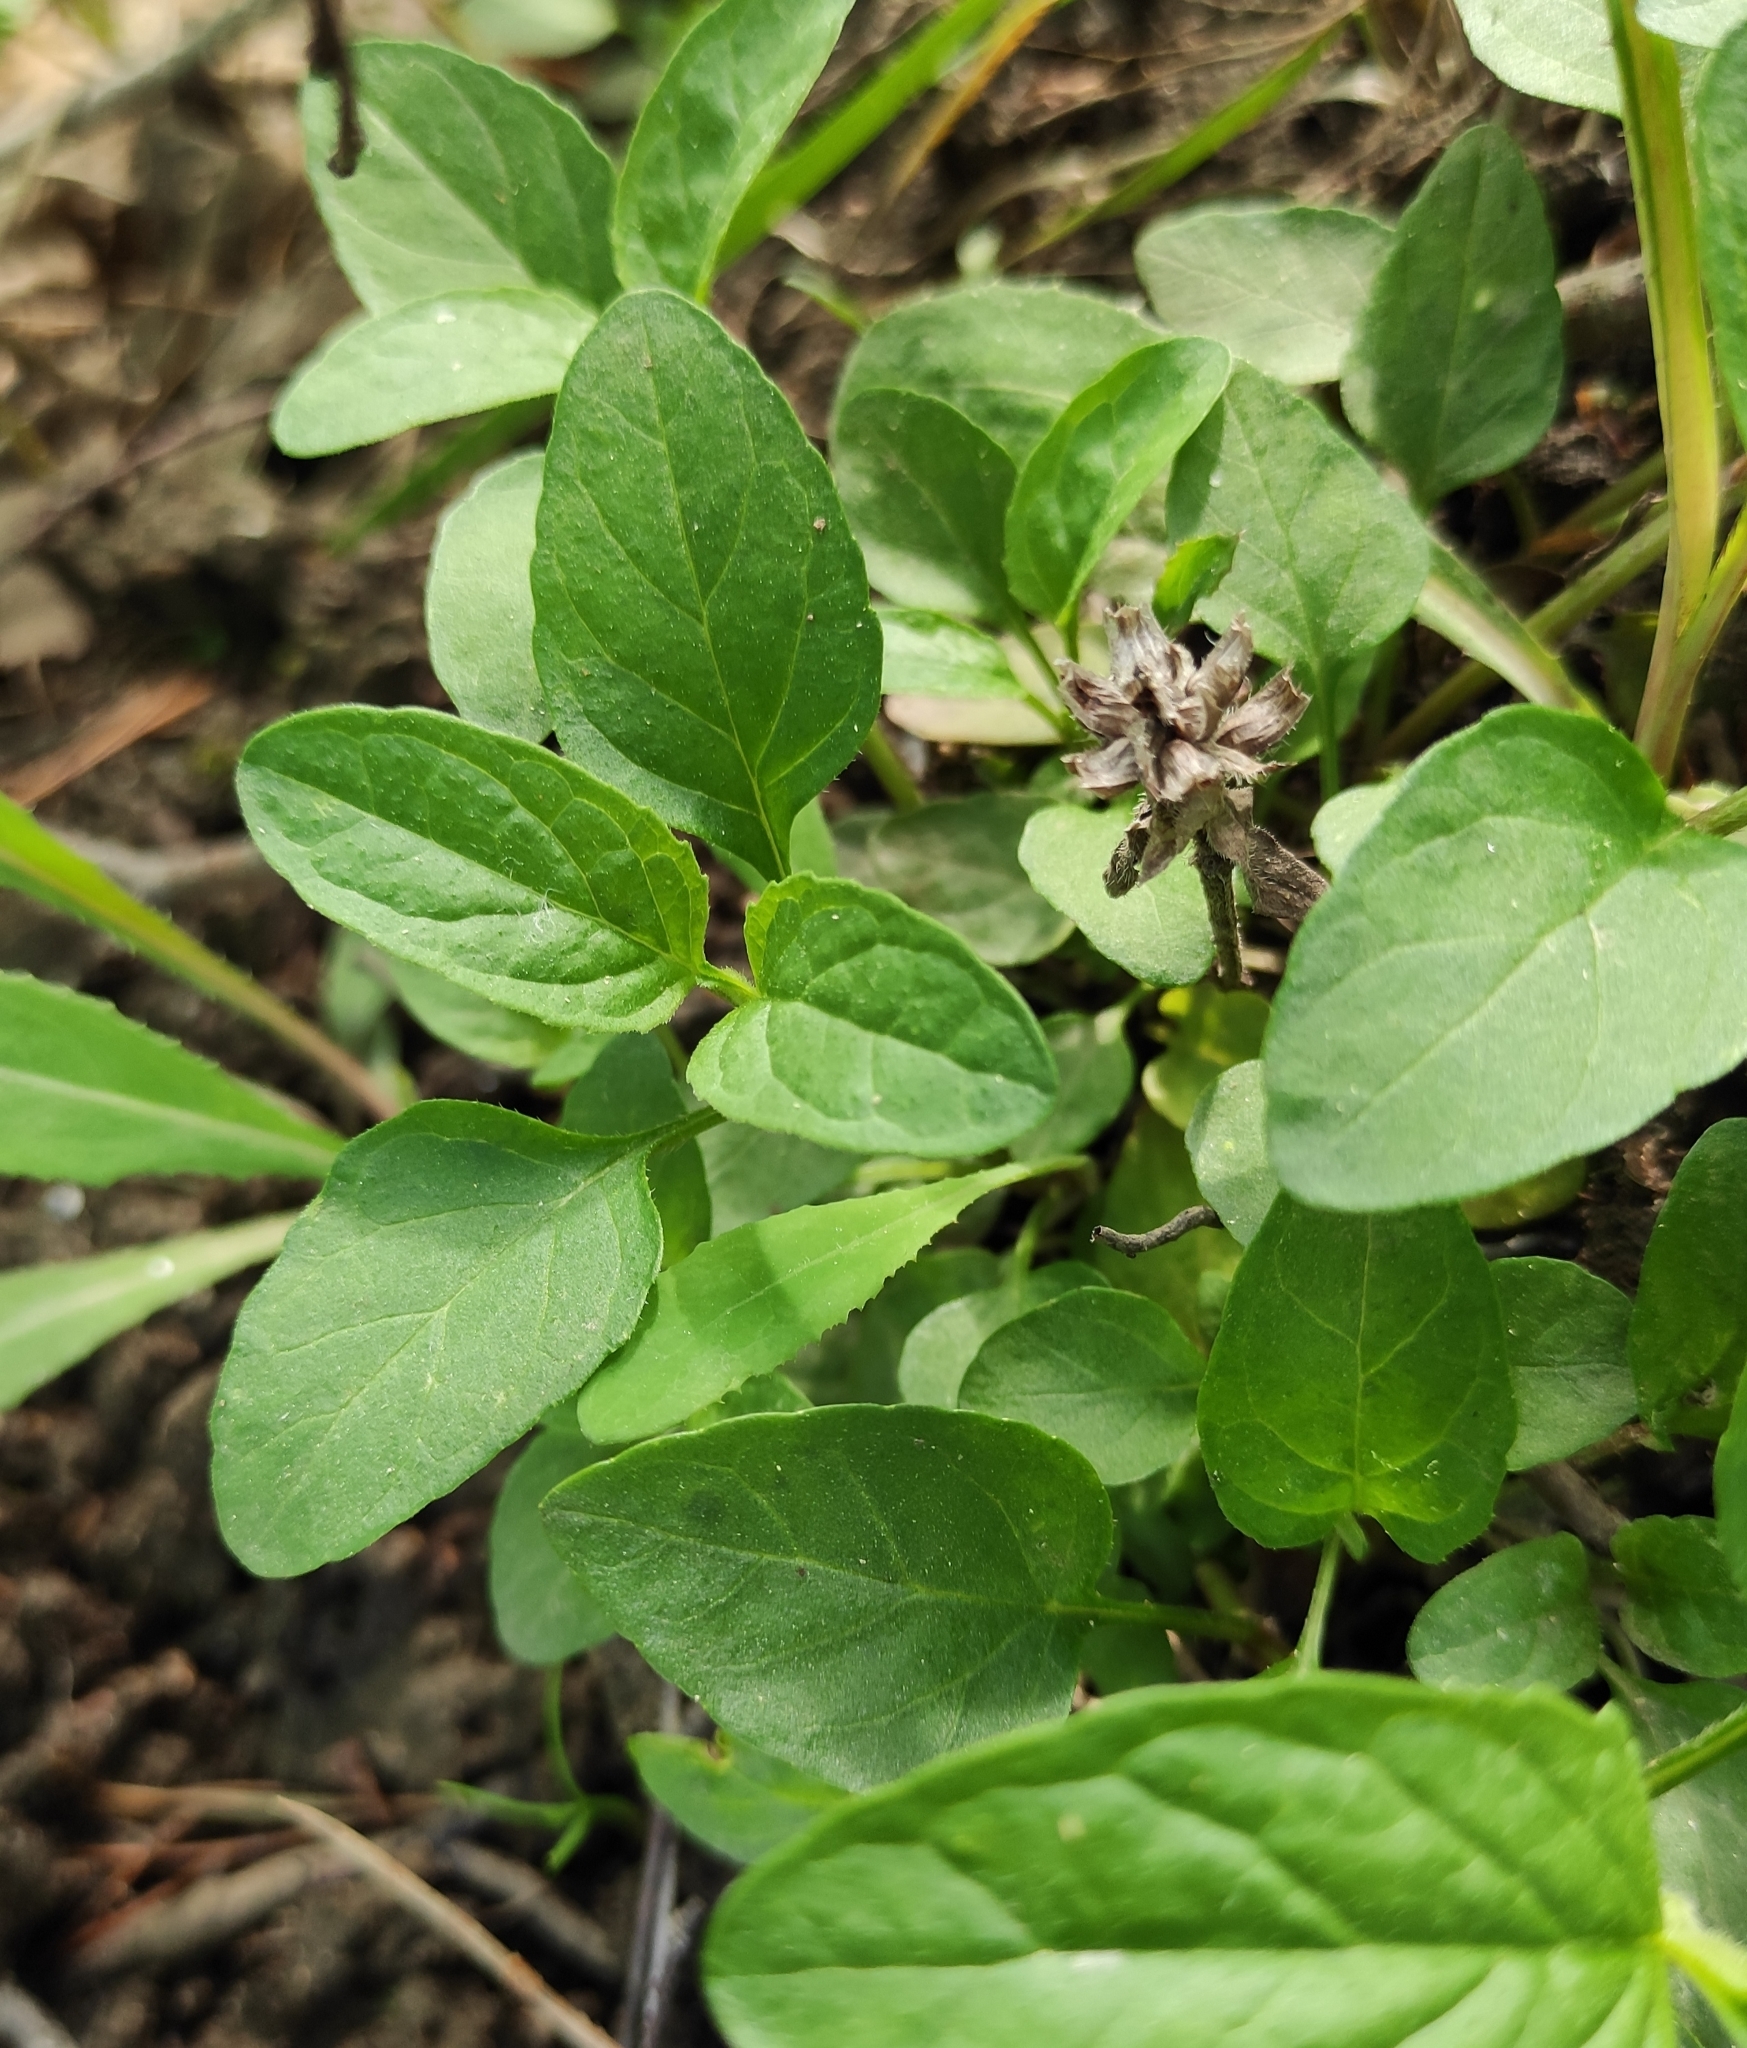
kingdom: Plantae
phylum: Tracheophyta
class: Magnoliopsida
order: Lamiales
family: Lamiaceae
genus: Prunella
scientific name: Prunella vulgaris
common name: Heal-all
